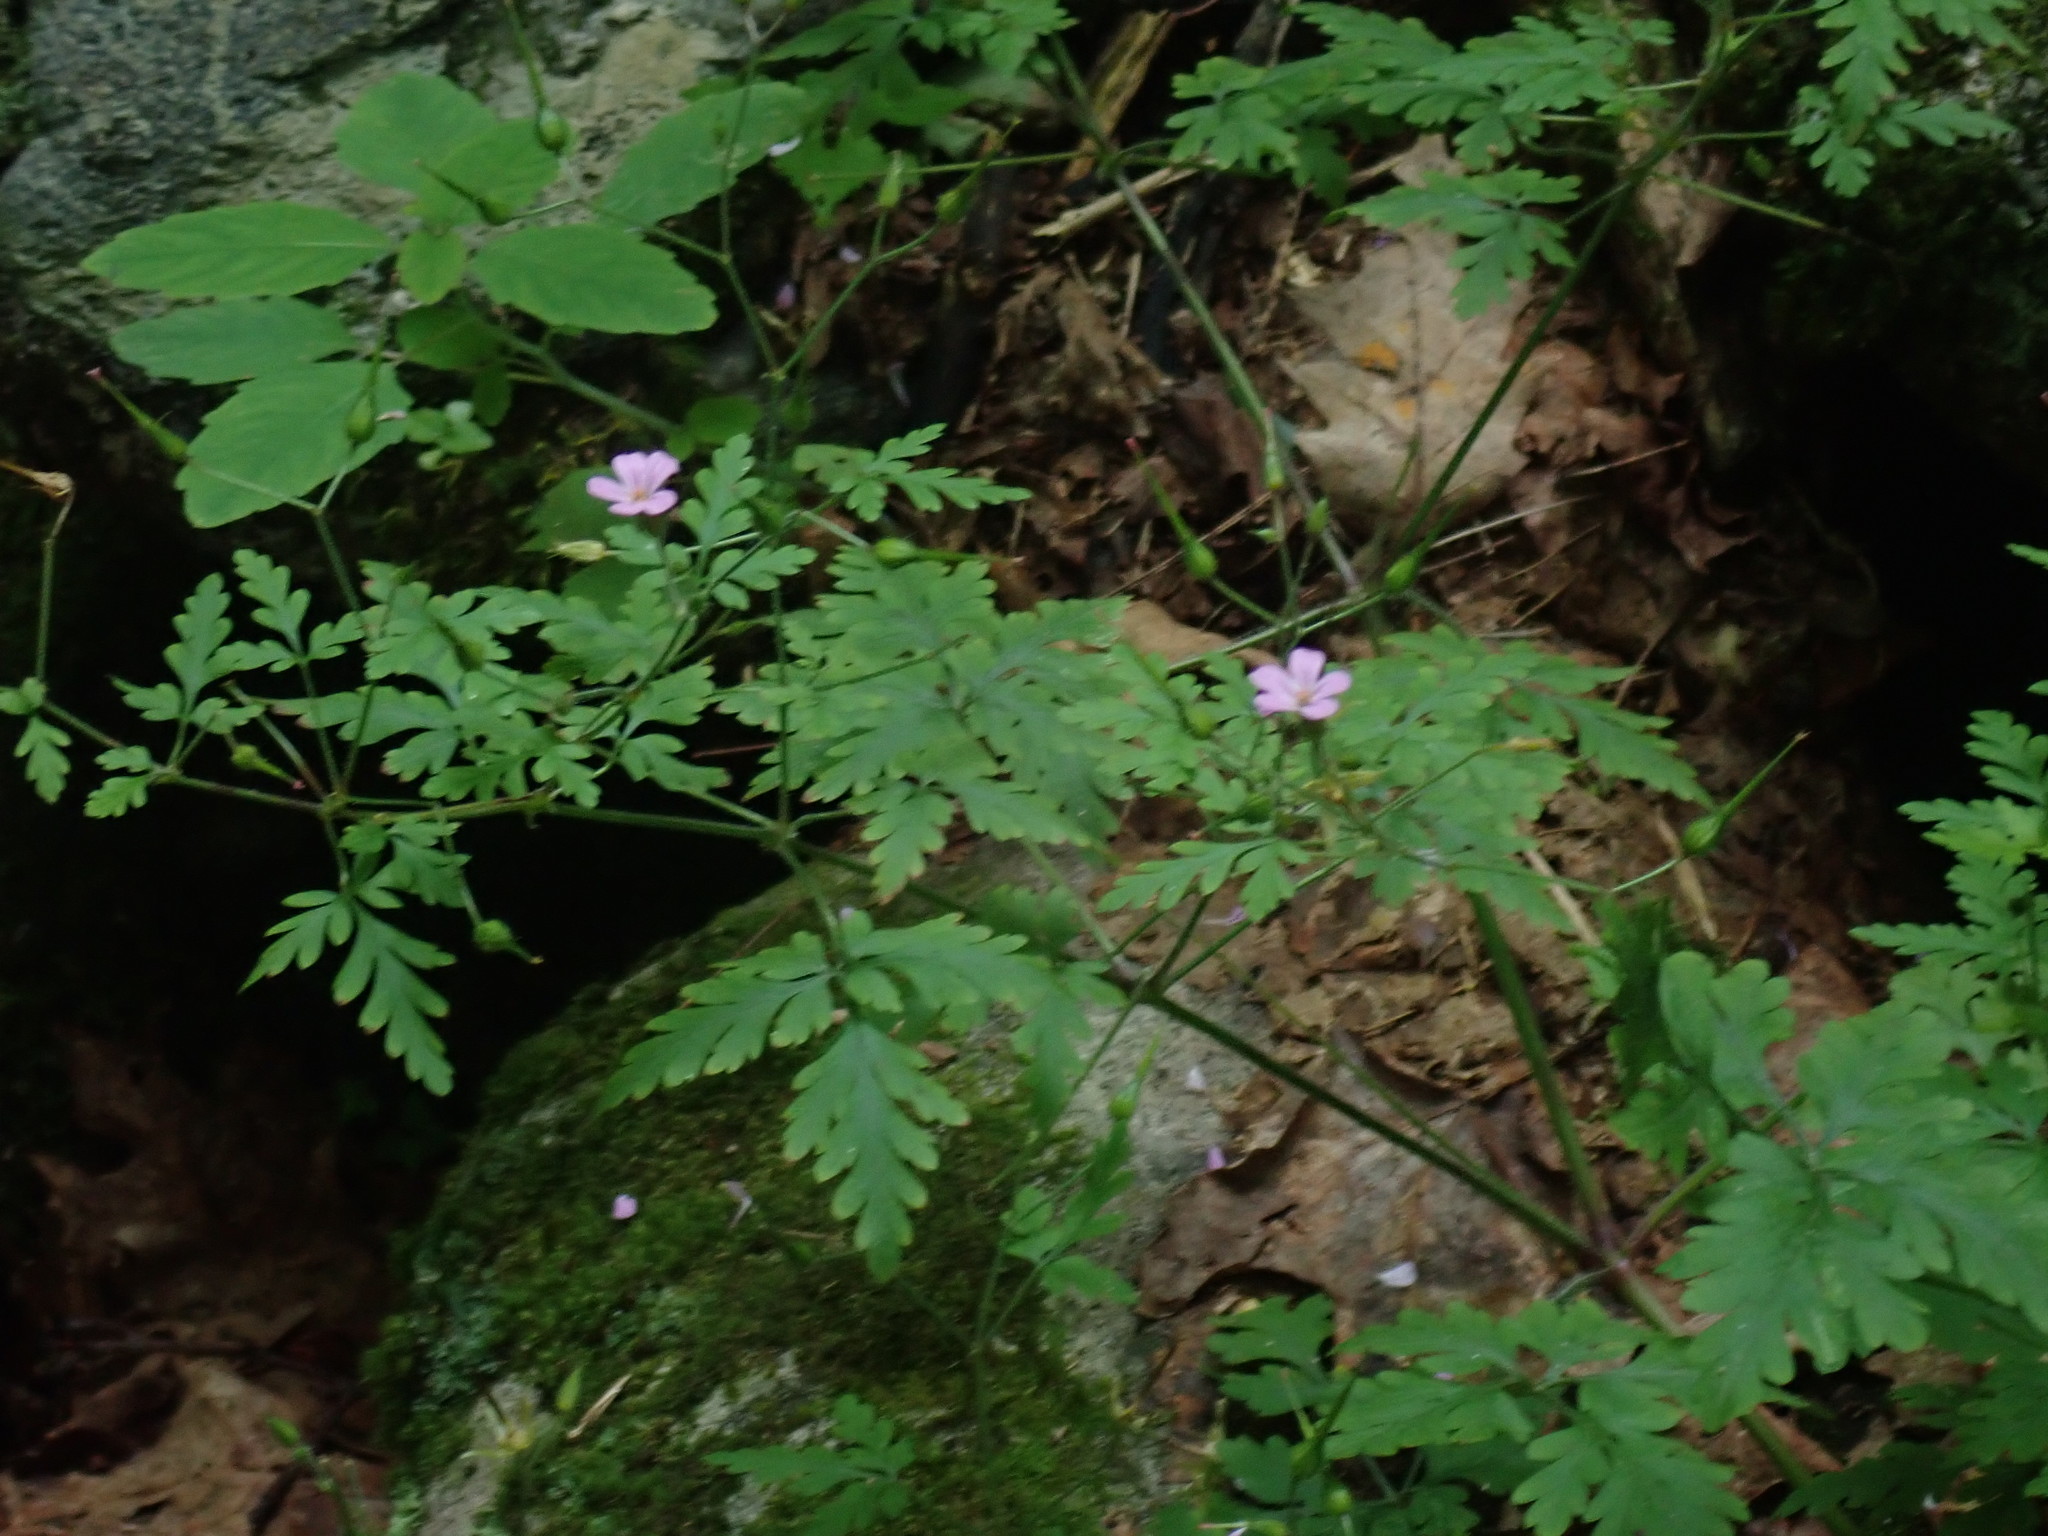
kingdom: Plantae
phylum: Tracheophyta
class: Magnoliopsida
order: Geraniales
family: Geraniaceae
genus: Geranium
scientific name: Geranium robertianum
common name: Herb-robert
